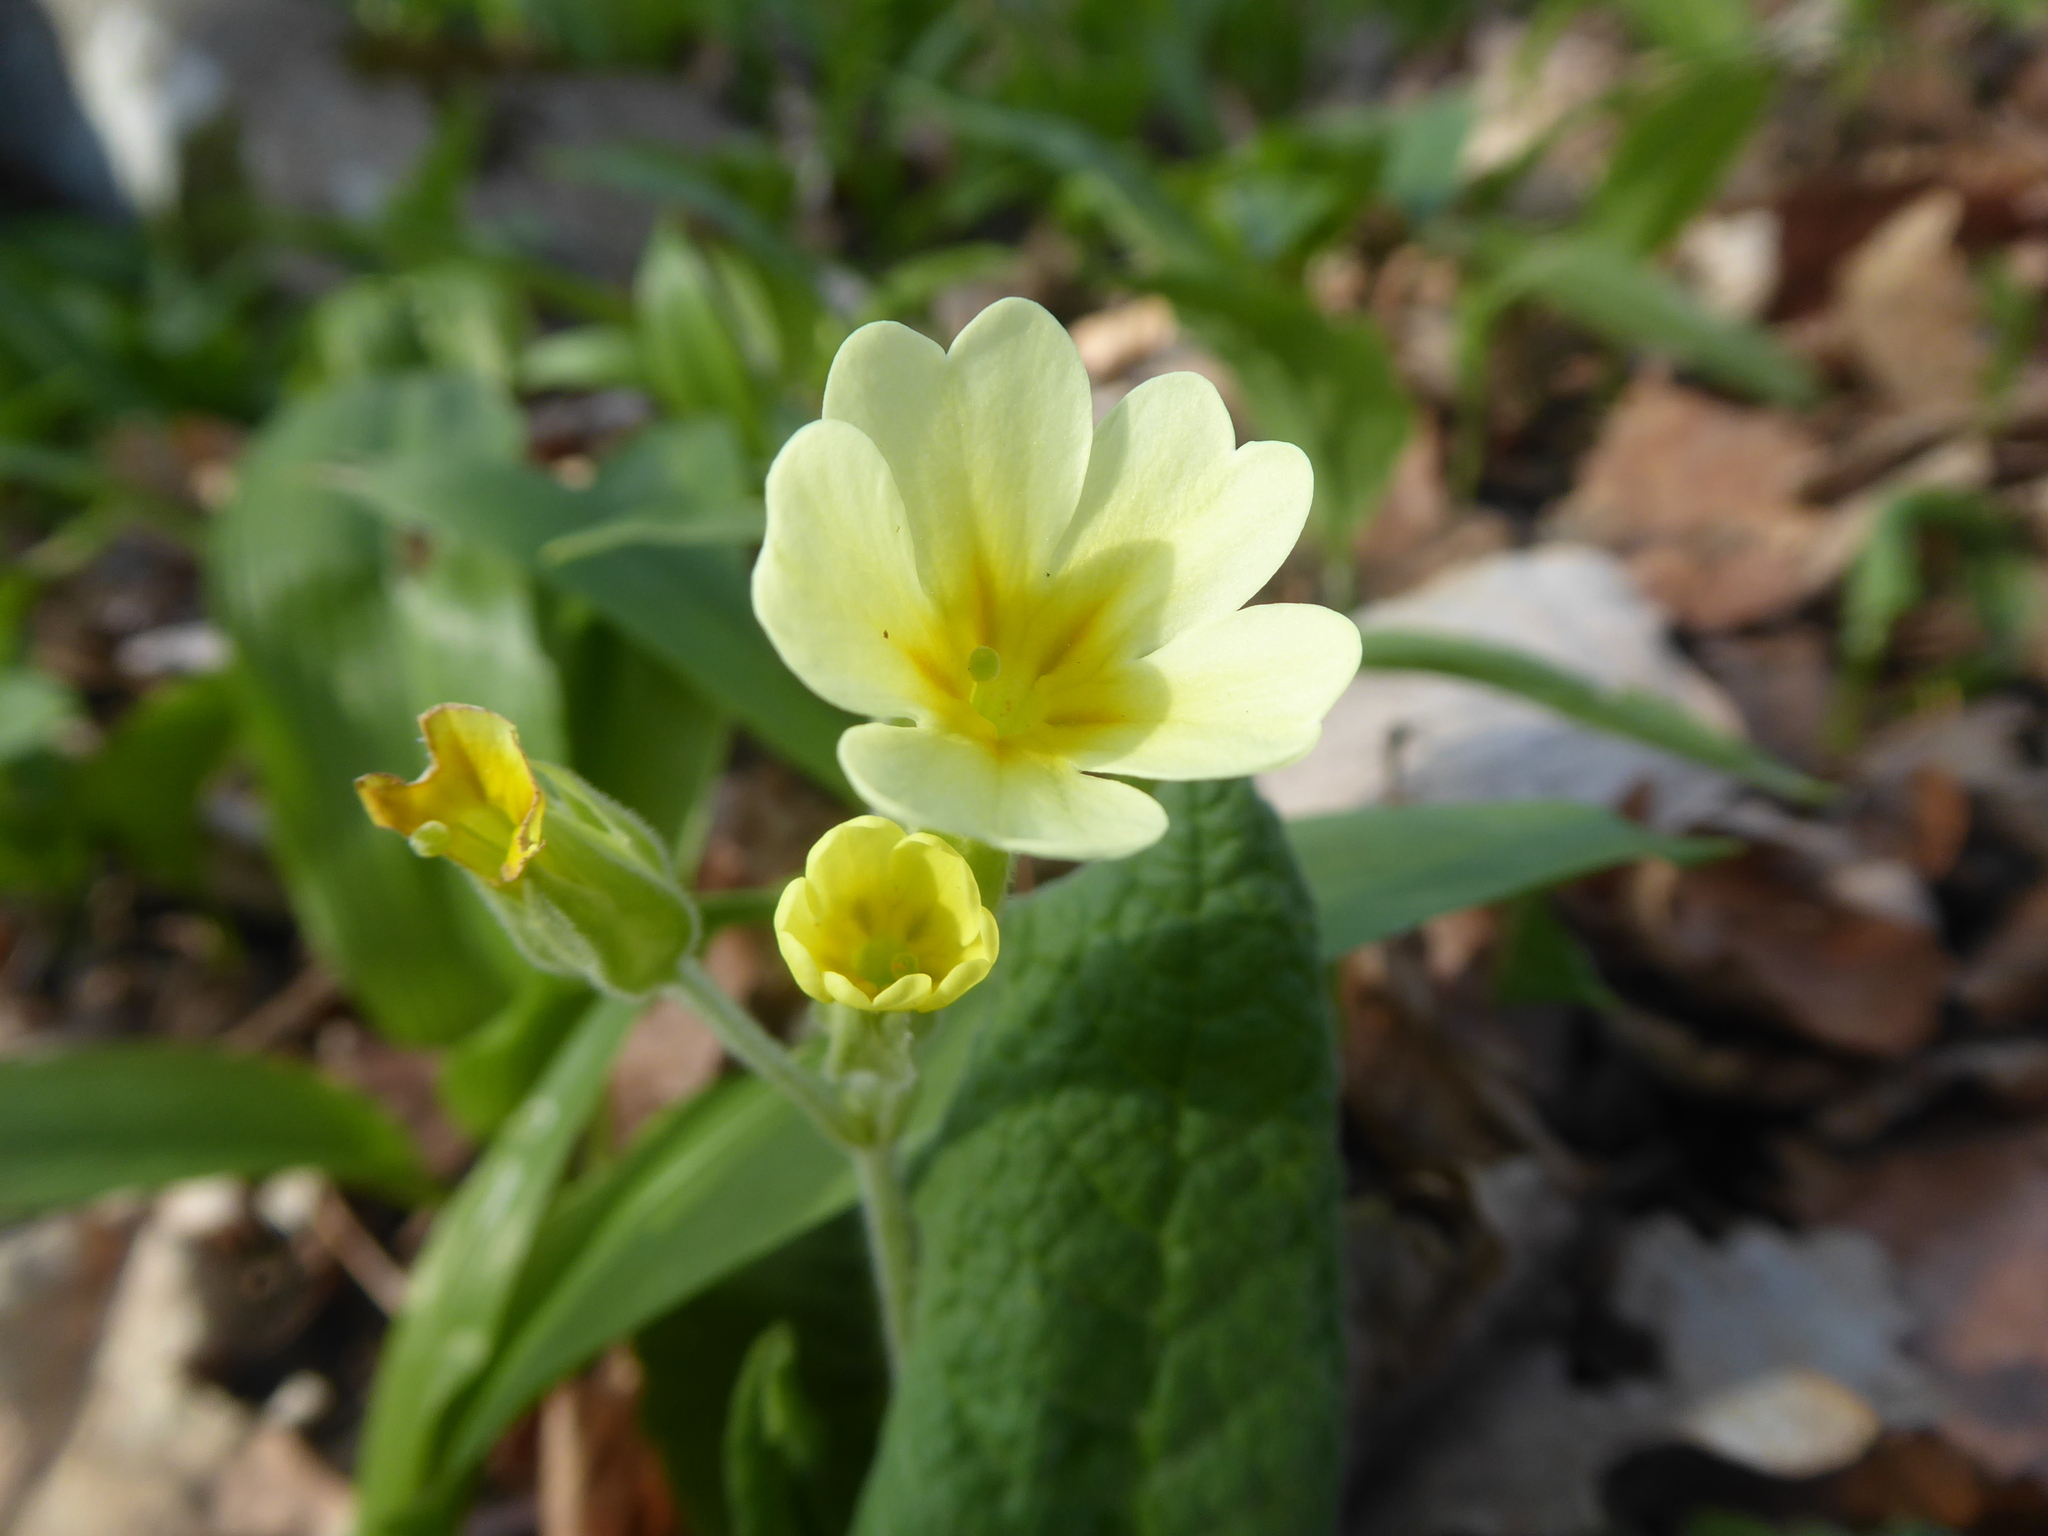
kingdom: Plantae
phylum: Tracheophyta
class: Magnoliopsida
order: Ericales
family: Primulaceae
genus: Primula
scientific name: Primula polyantha
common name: False oxlip
